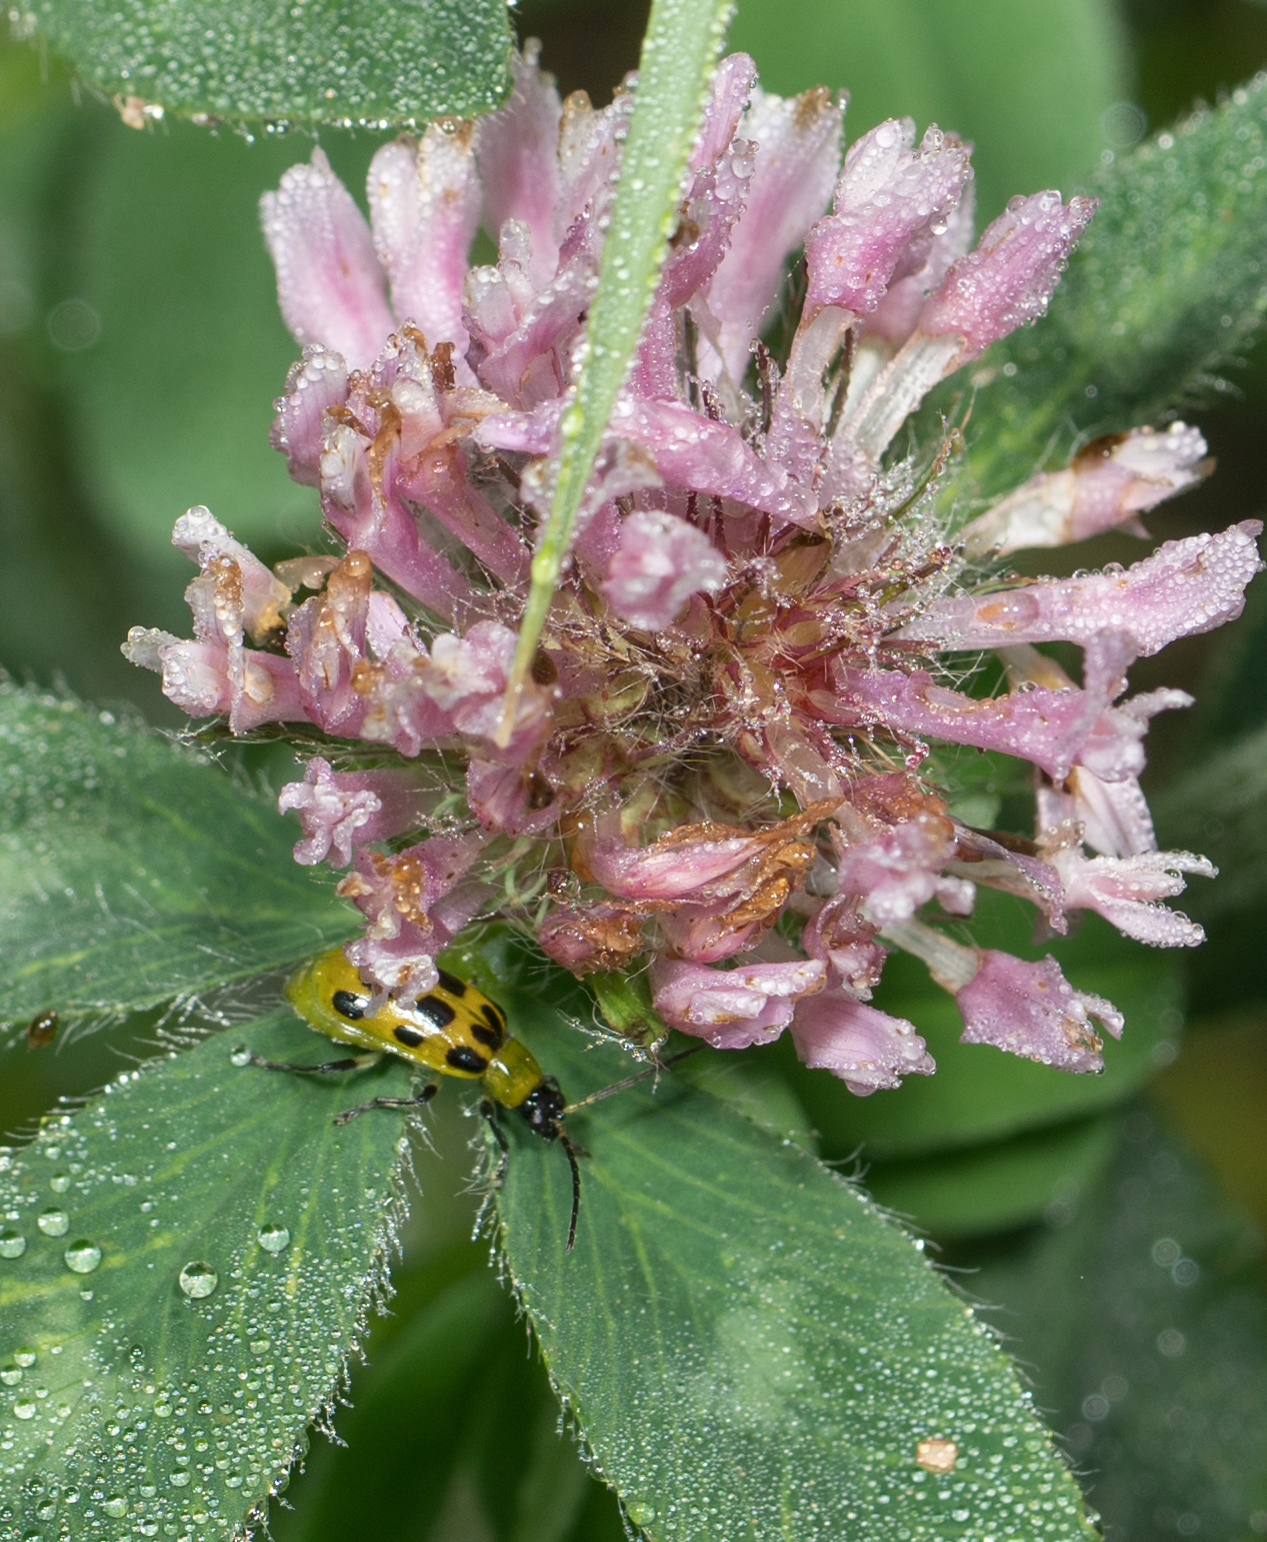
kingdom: Animalia
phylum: Arthropoda
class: Insecta
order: Coleoptera
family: Chrysomelidae
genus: Diabrotica
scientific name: Diabrotica undecimpunctata
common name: Spotted cucumber beetle
